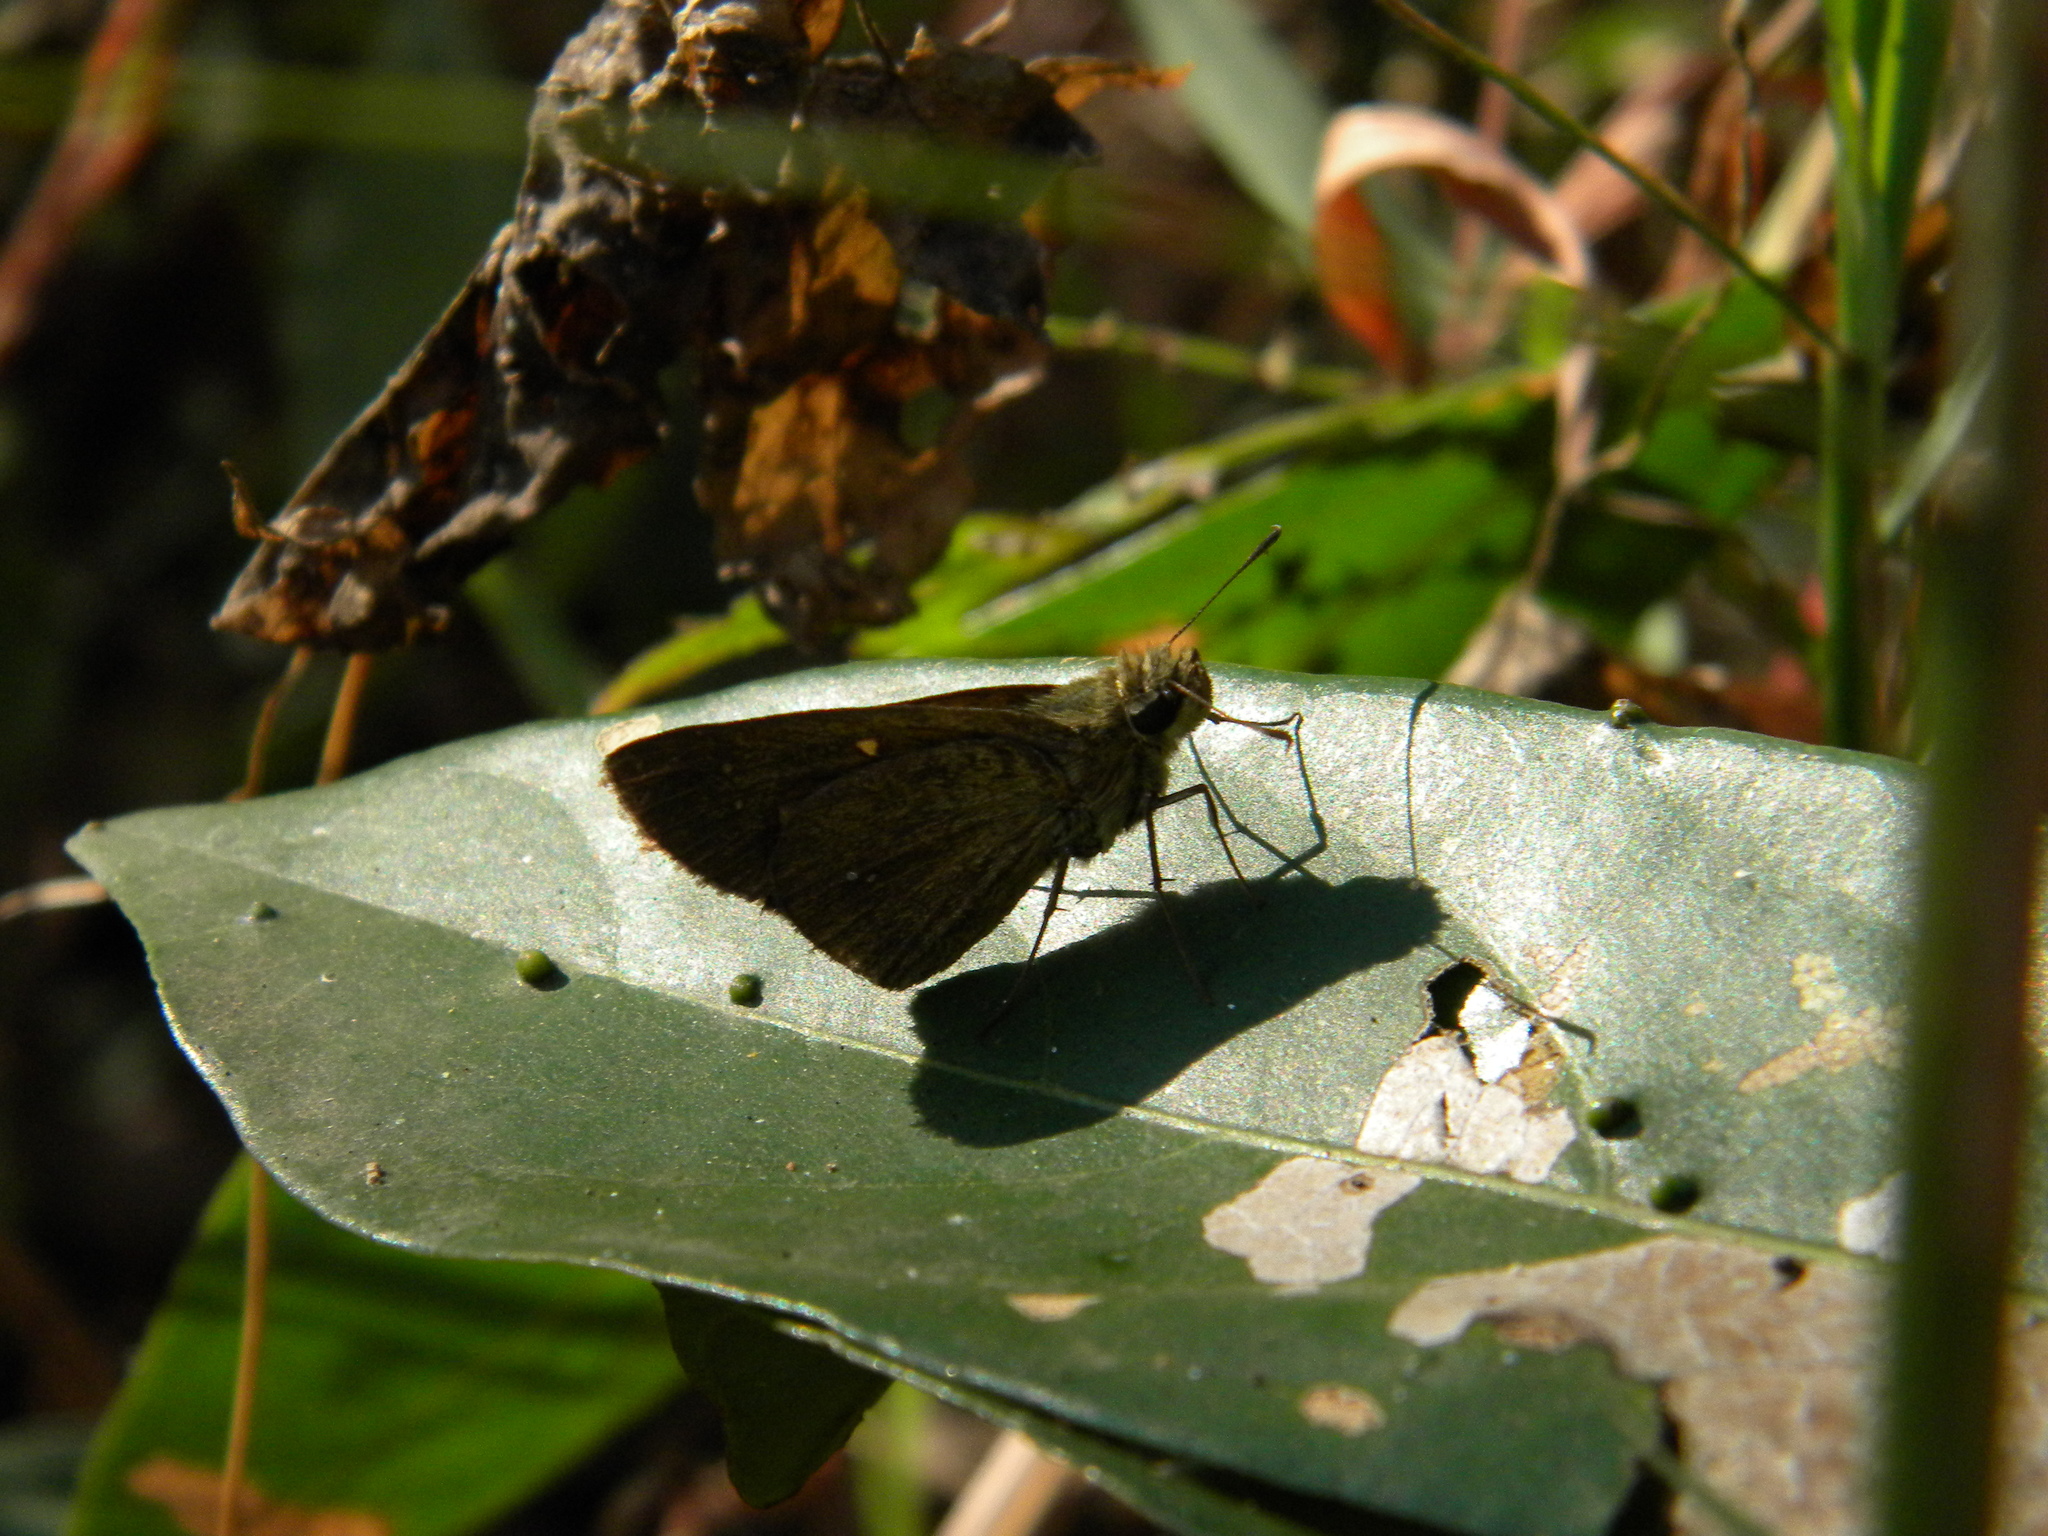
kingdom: Animalia
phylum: Arthropoda
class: Insecta
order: Lepidoptera
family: Hesperiidae
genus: Baoris
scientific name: Baoris farri
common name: Paintbrush swift
